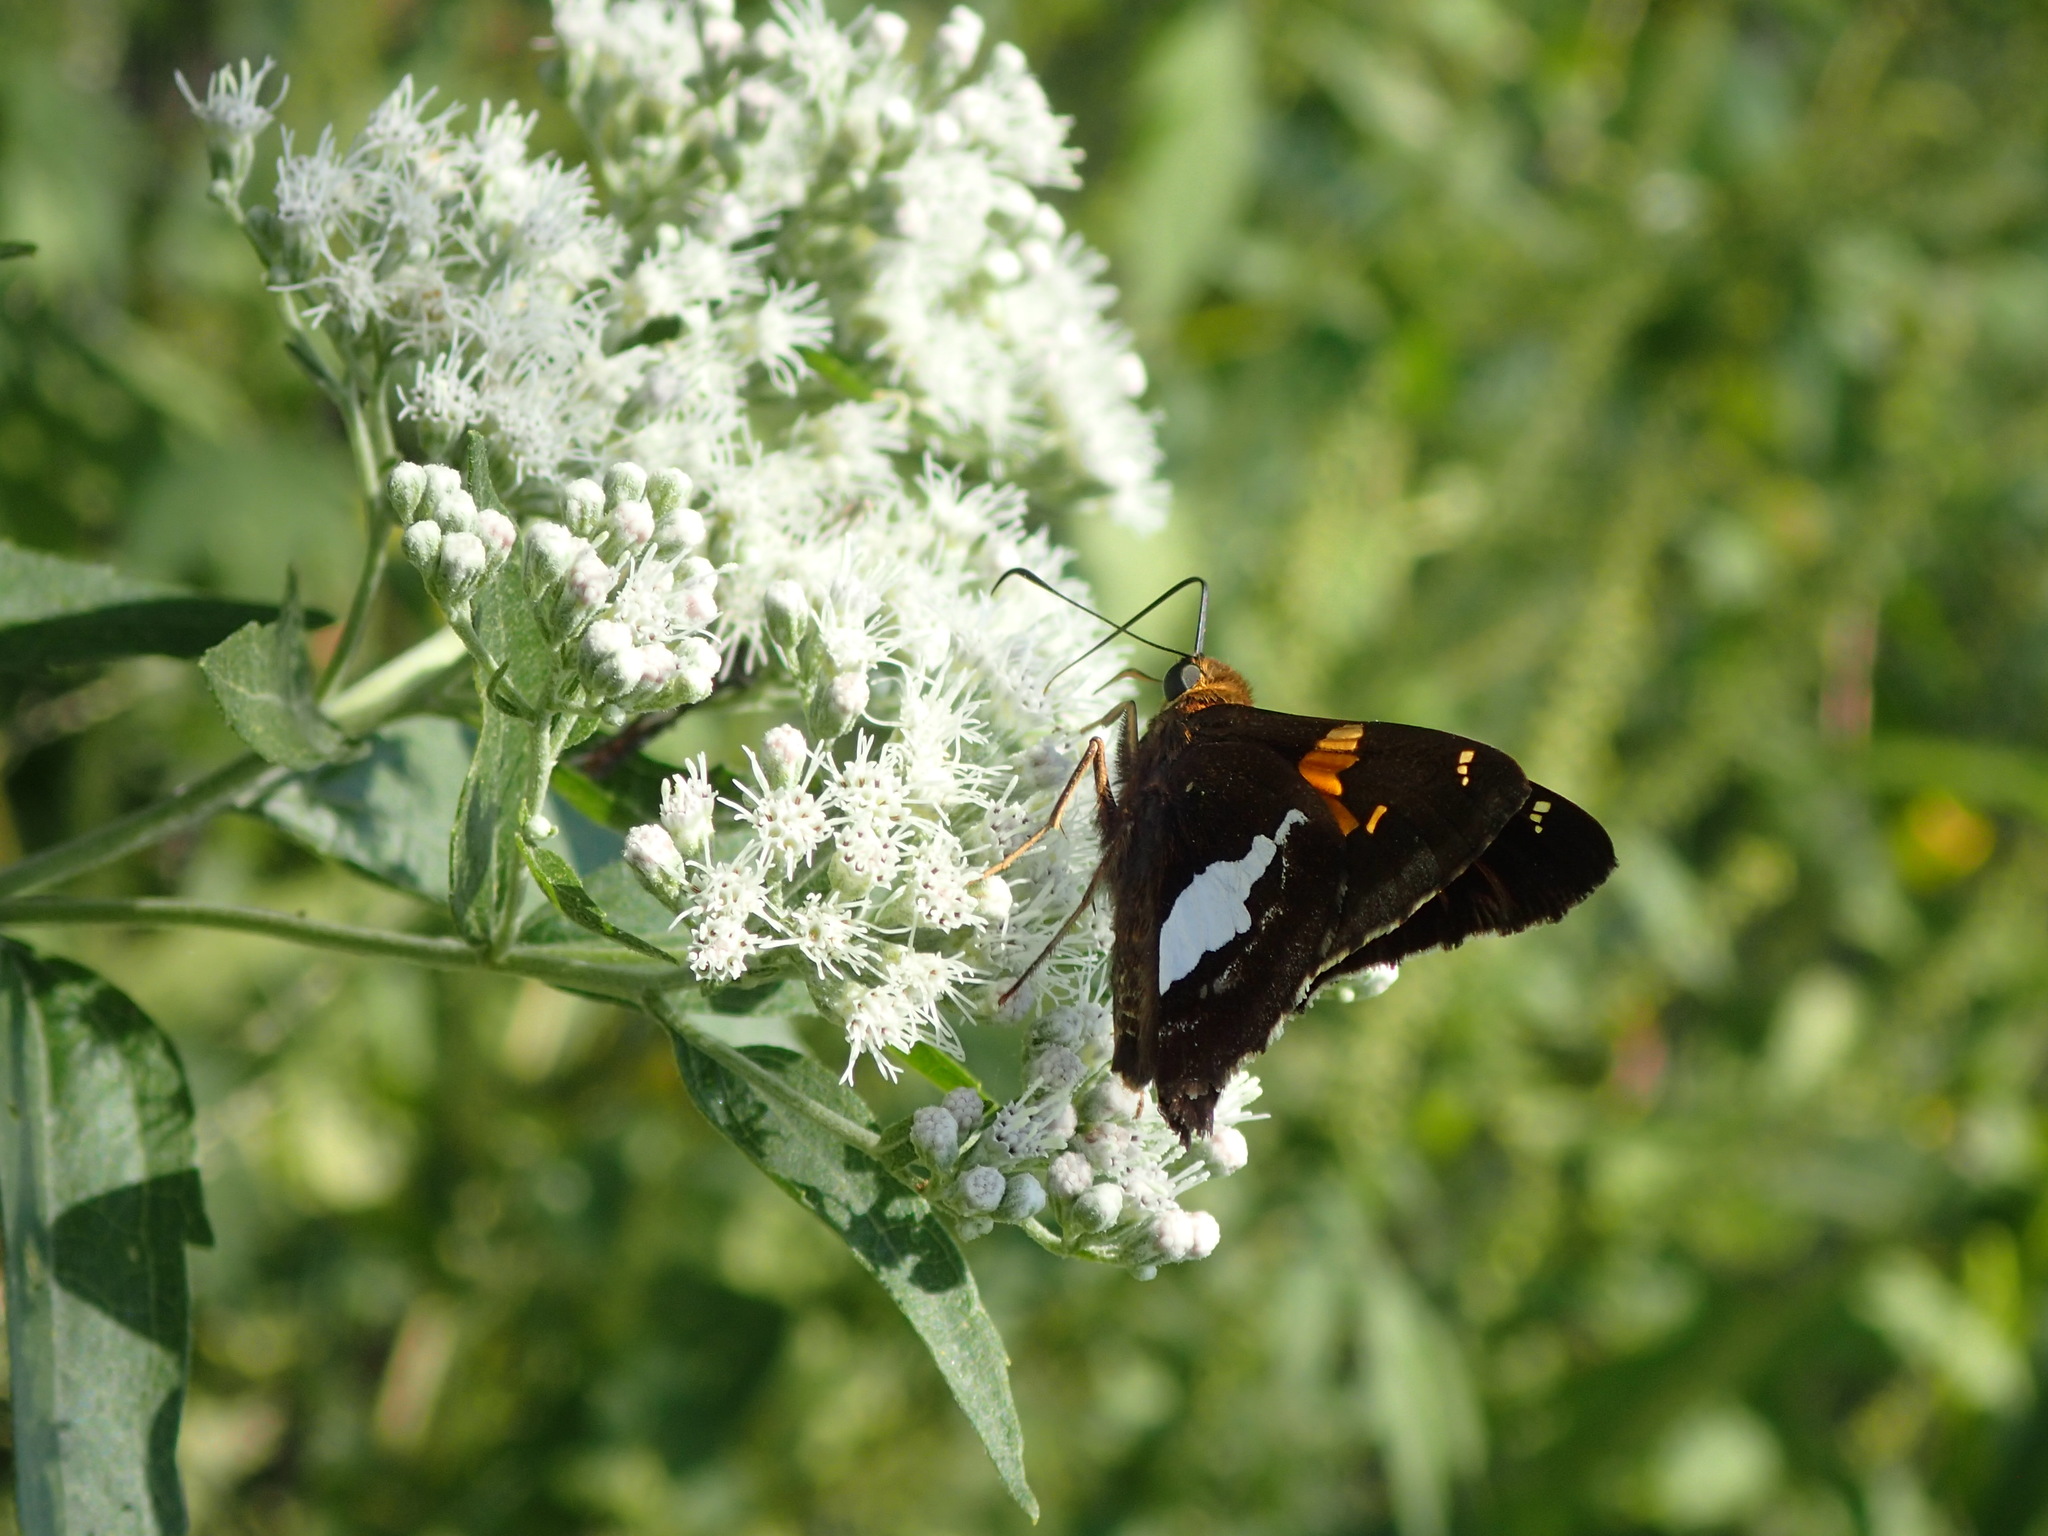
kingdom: Animalia
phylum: Arthropoda
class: Insecta
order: Lepidoptera
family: Hesperiidae
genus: Epargyreus
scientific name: Epargyreus clarus
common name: Silver-spotted skipper
